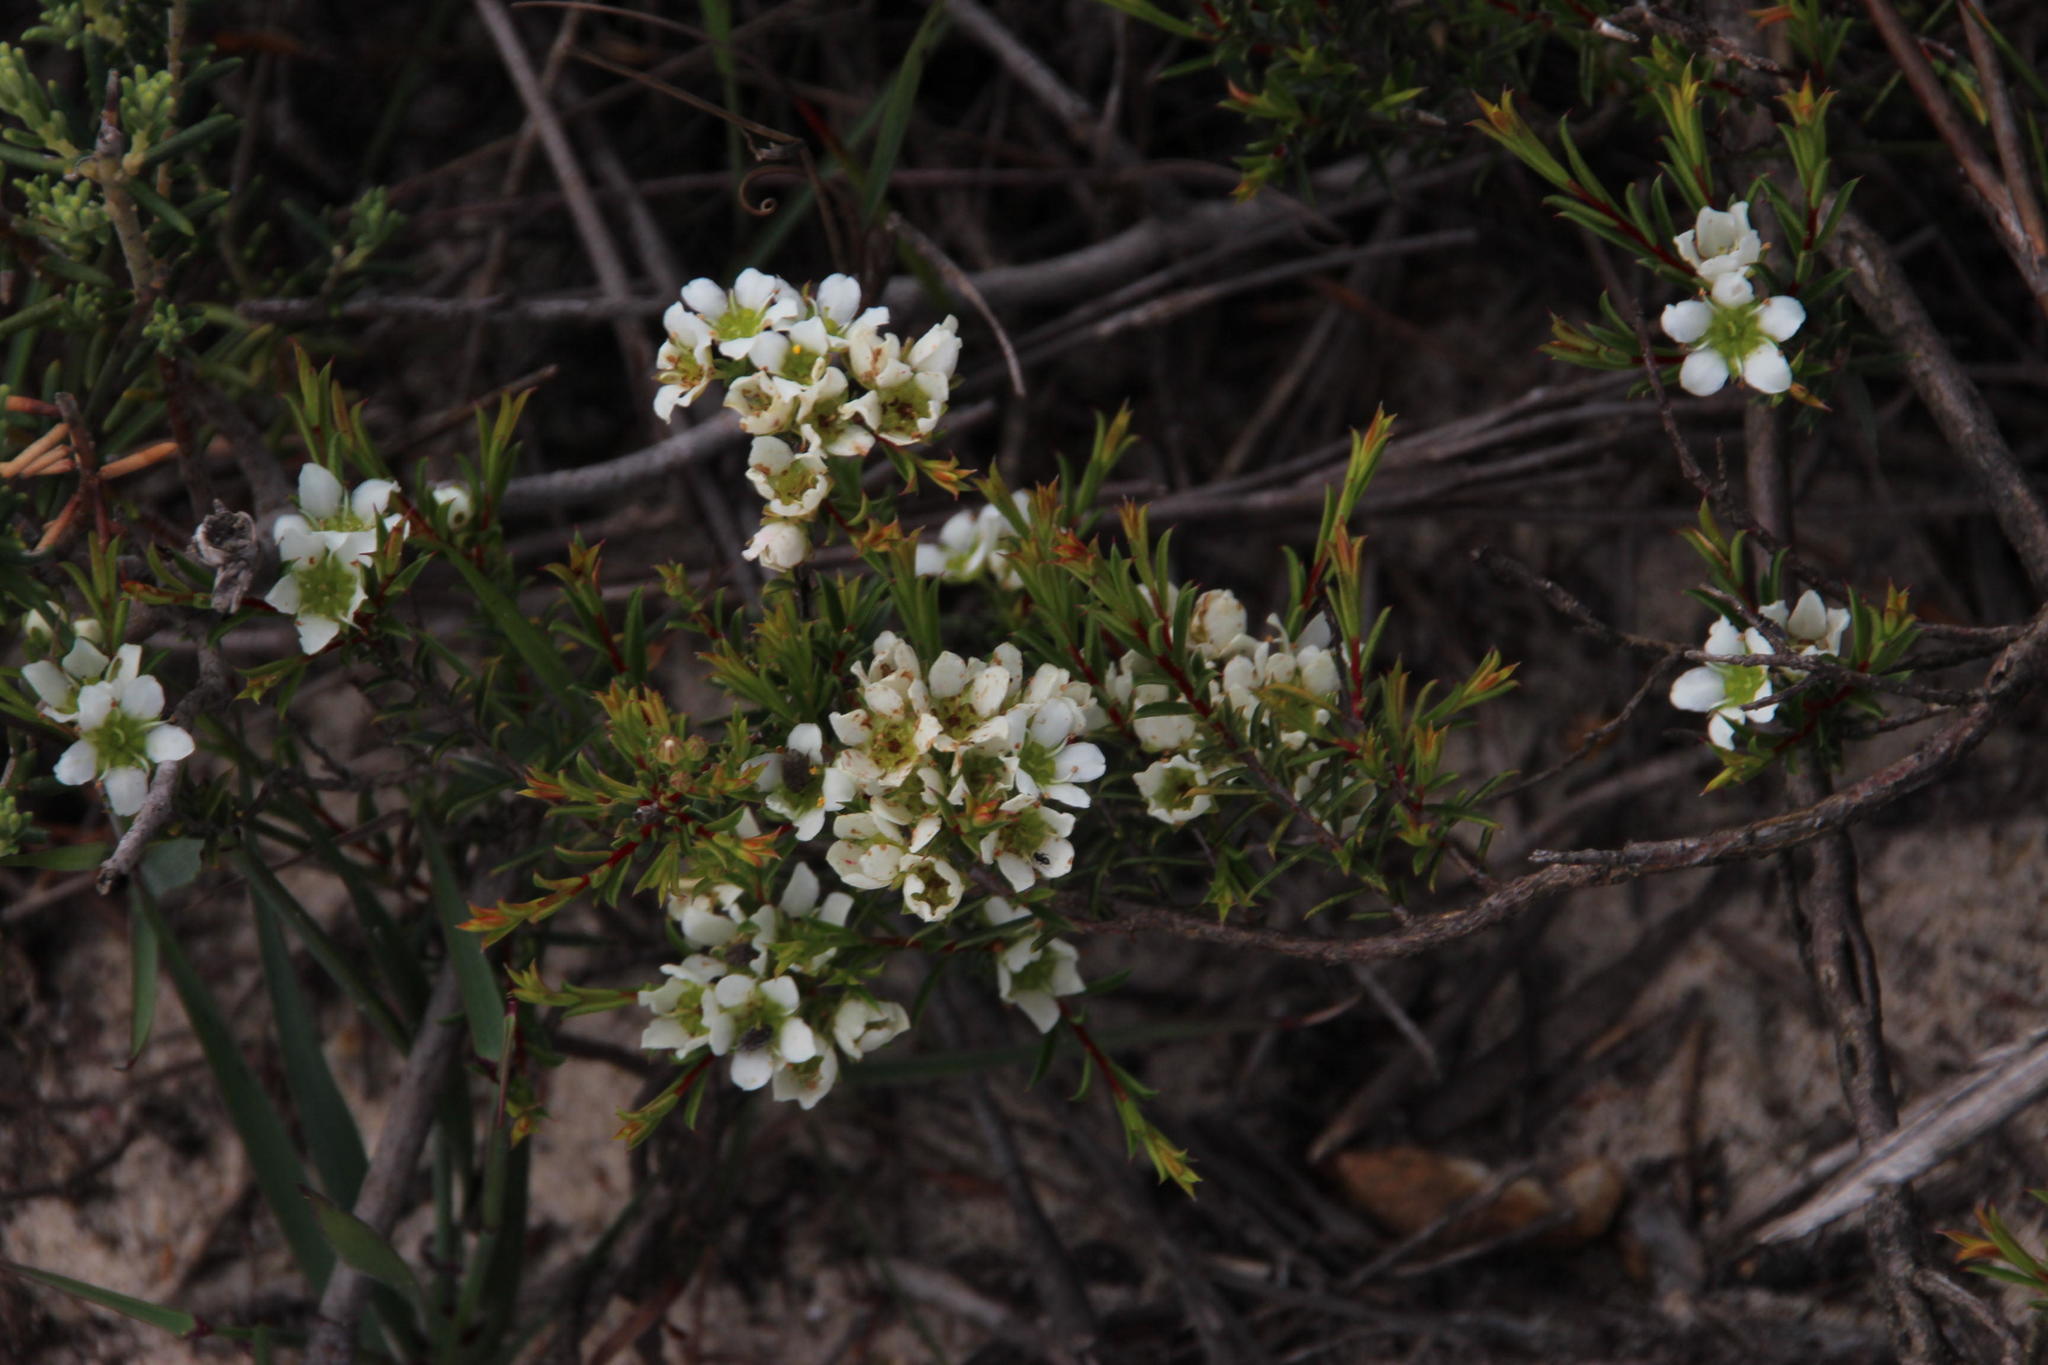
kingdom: Plantae
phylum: Tracheophyta
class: Magnoliopsida
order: Sapindales
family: Rutaceae
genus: Diosma
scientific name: Diosma aspalathoides
